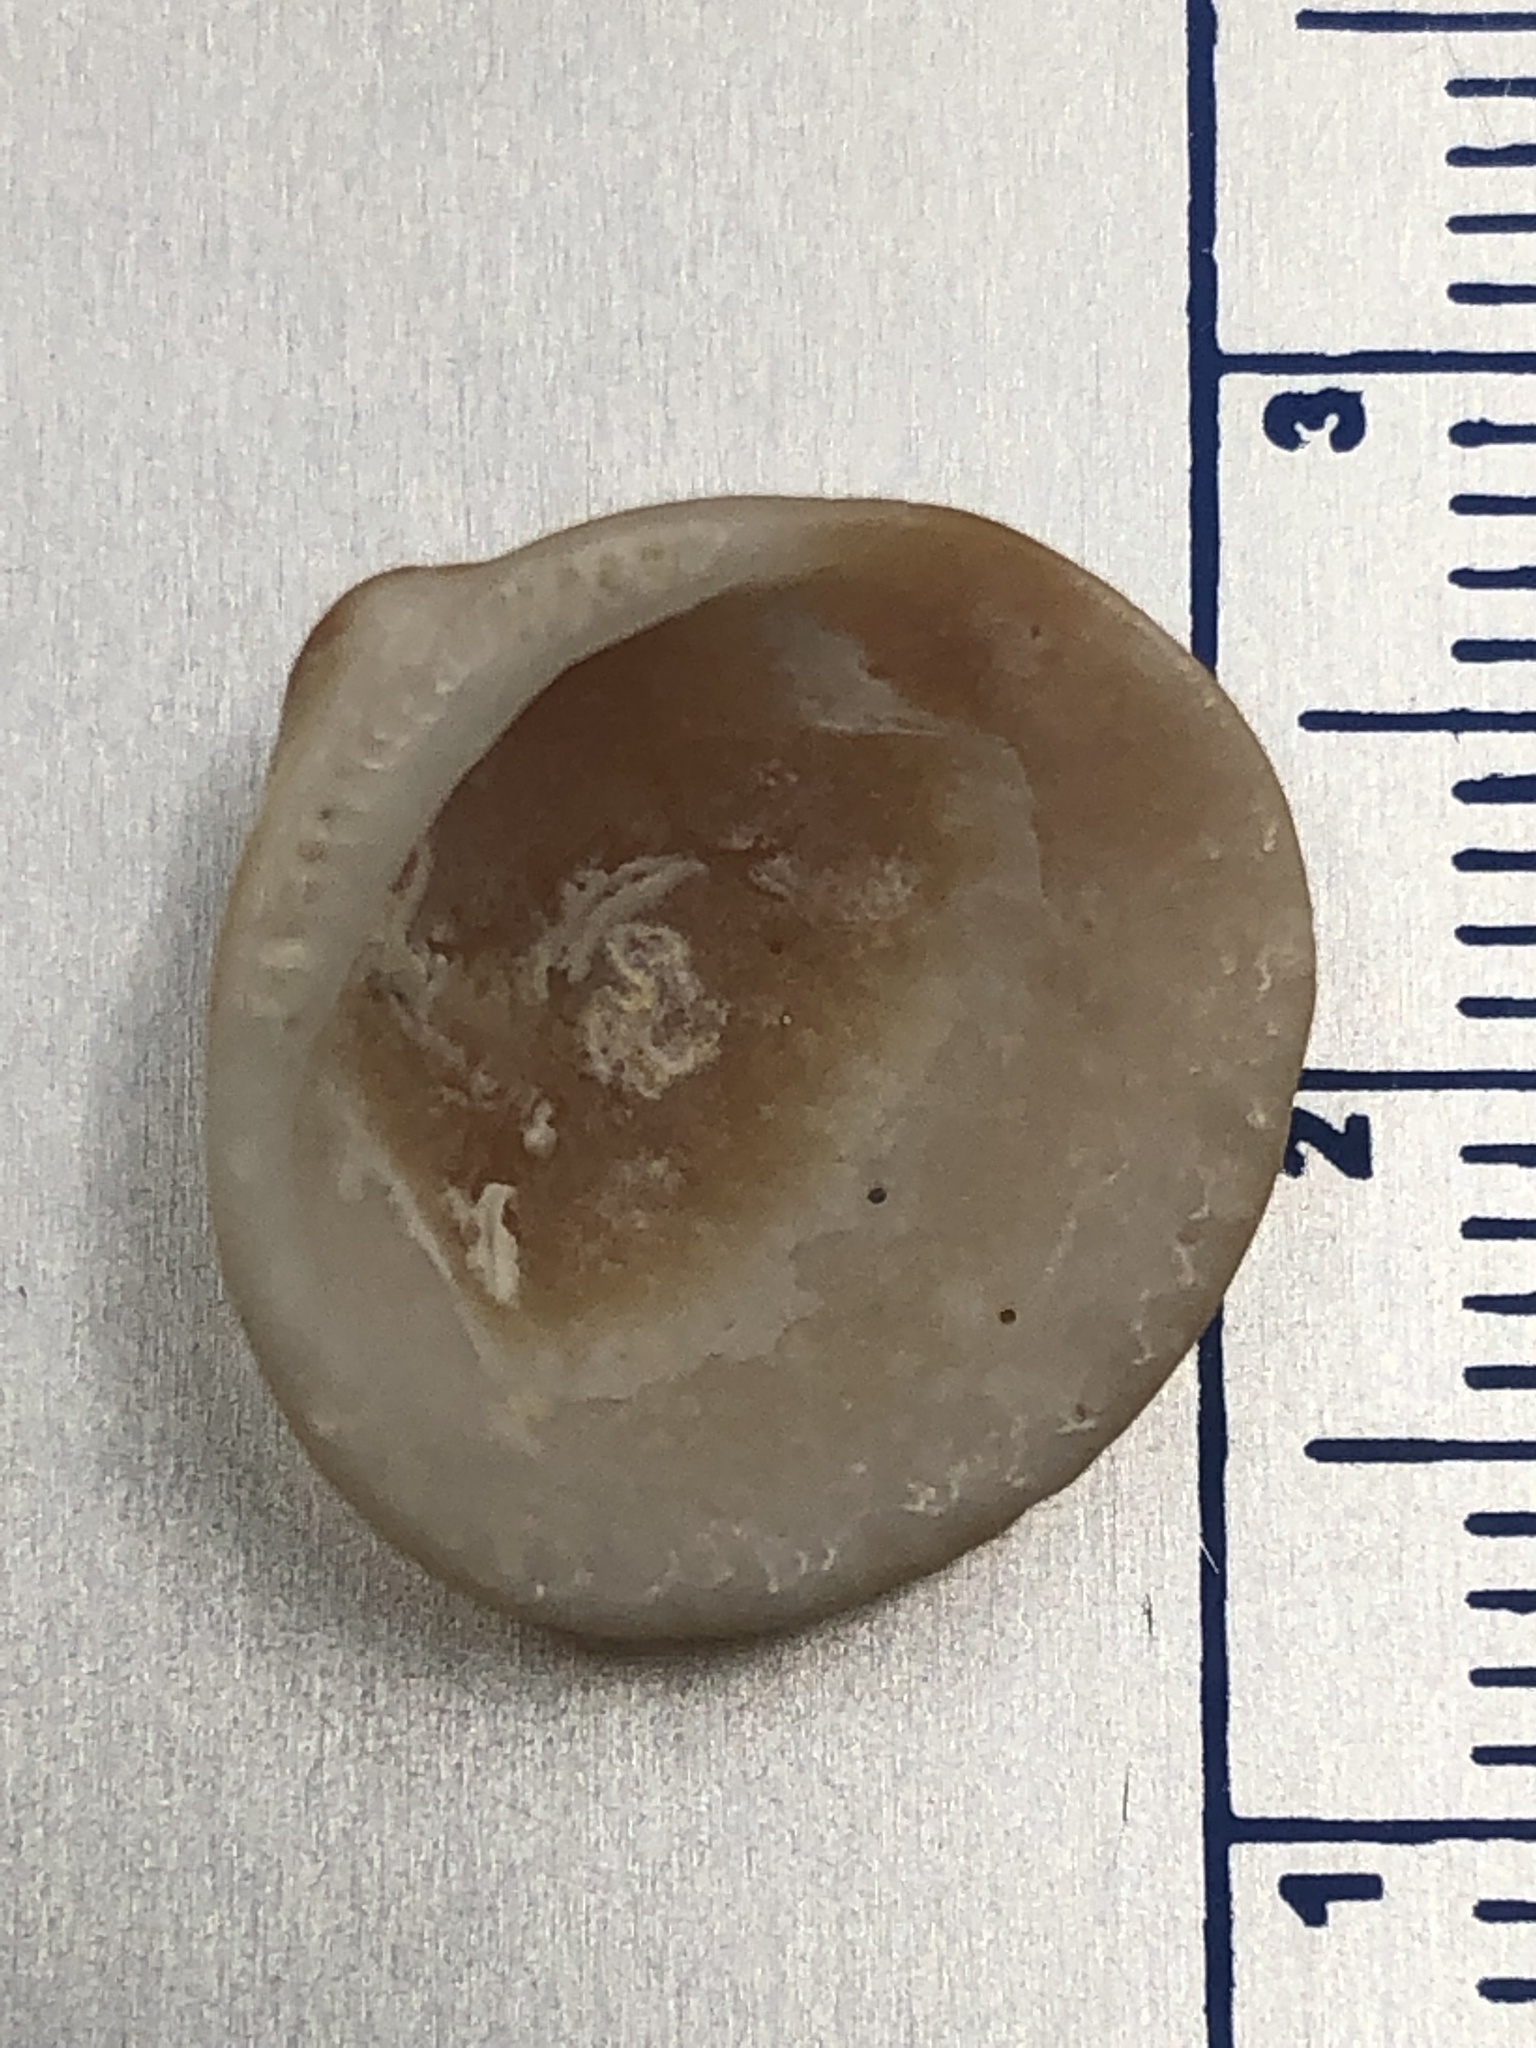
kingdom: Animalia
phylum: Mollusca
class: Bivalvia
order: Arcida
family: Glycymerididae
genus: Glycymeris
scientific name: Glycymeris spectralis
